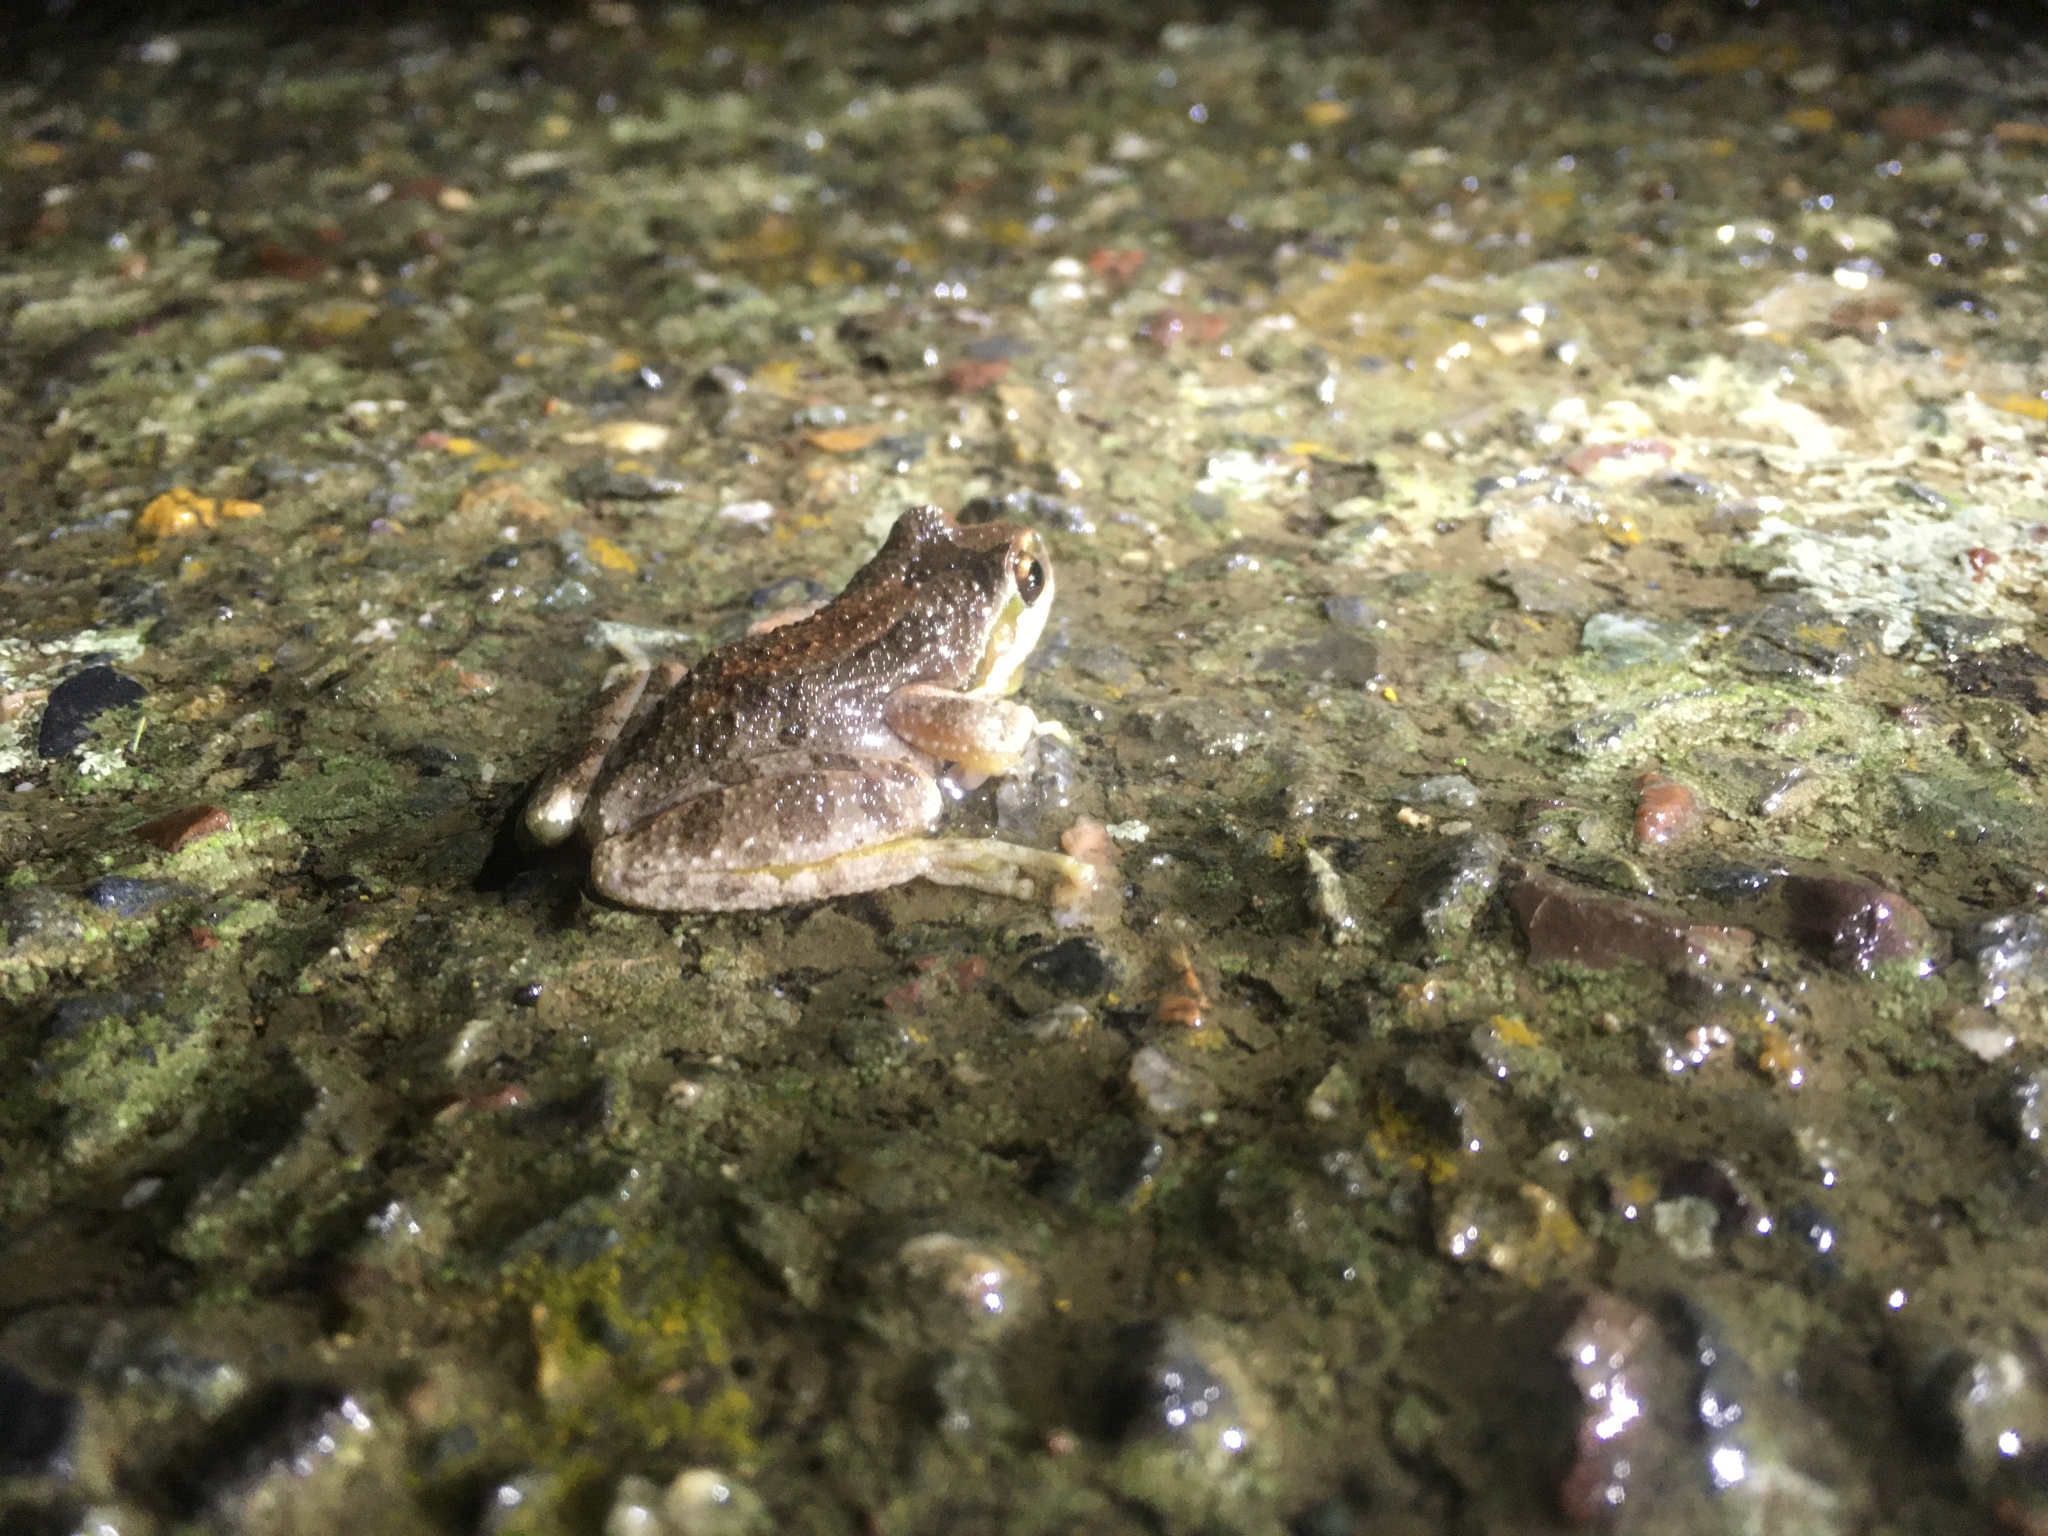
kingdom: Animalia
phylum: Chordata
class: Amphibia
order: Anura
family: Hylidae
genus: Pseudacris
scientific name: Pseudacris regilla
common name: Pacific chorus frog
